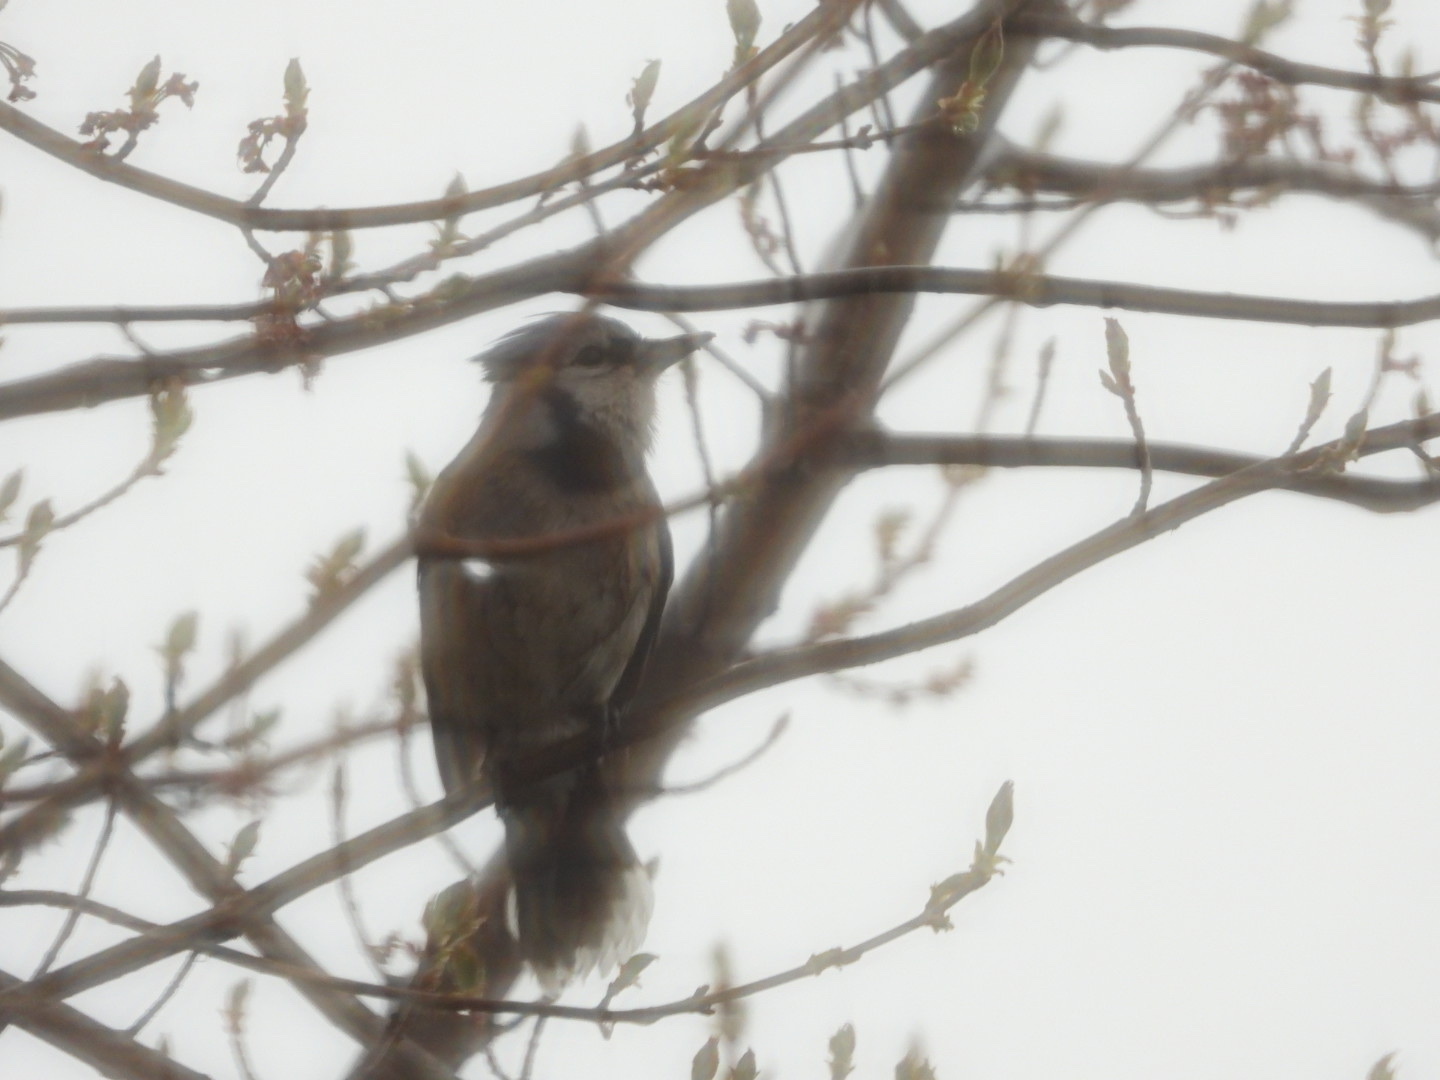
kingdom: Animalia
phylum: Chordata
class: Aves
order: Passeriformes
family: Corvidae
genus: Cyanocitta
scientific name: Cyanocitta cristata
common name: Blue jay
